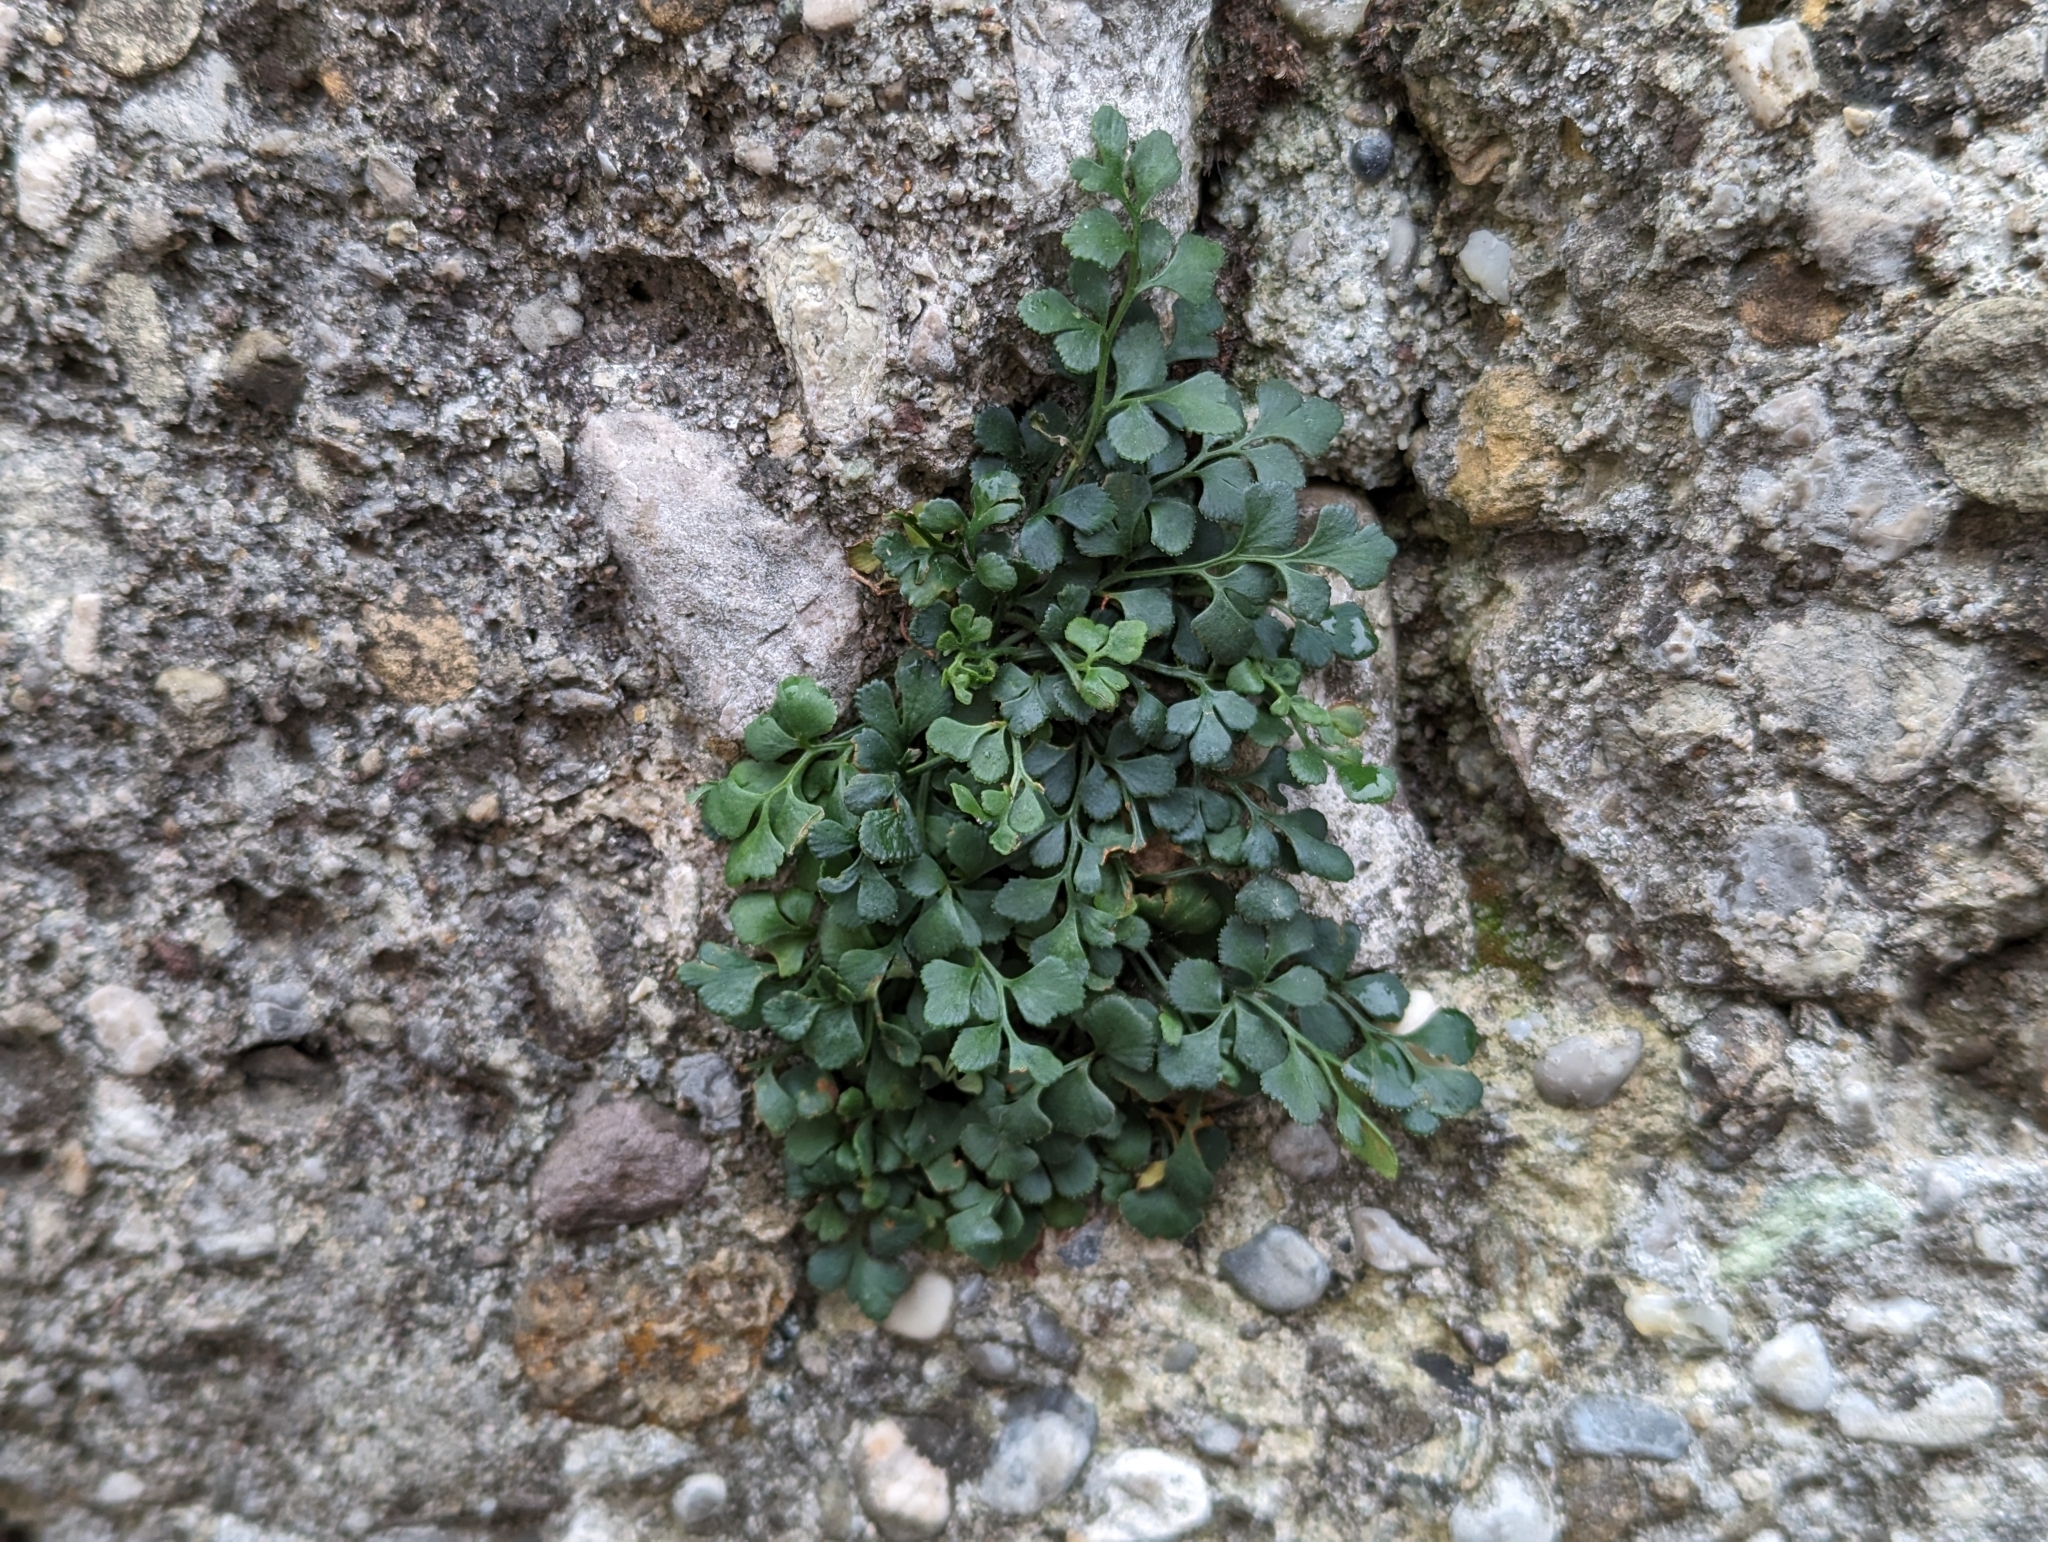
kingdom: Plantae
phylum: Tracheophyta
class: Polypodiopsida
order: Polypodiales
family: Aspleniaceae
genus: Asplenium
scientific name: Asplenium ruta-muraria
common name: Wall-rue
